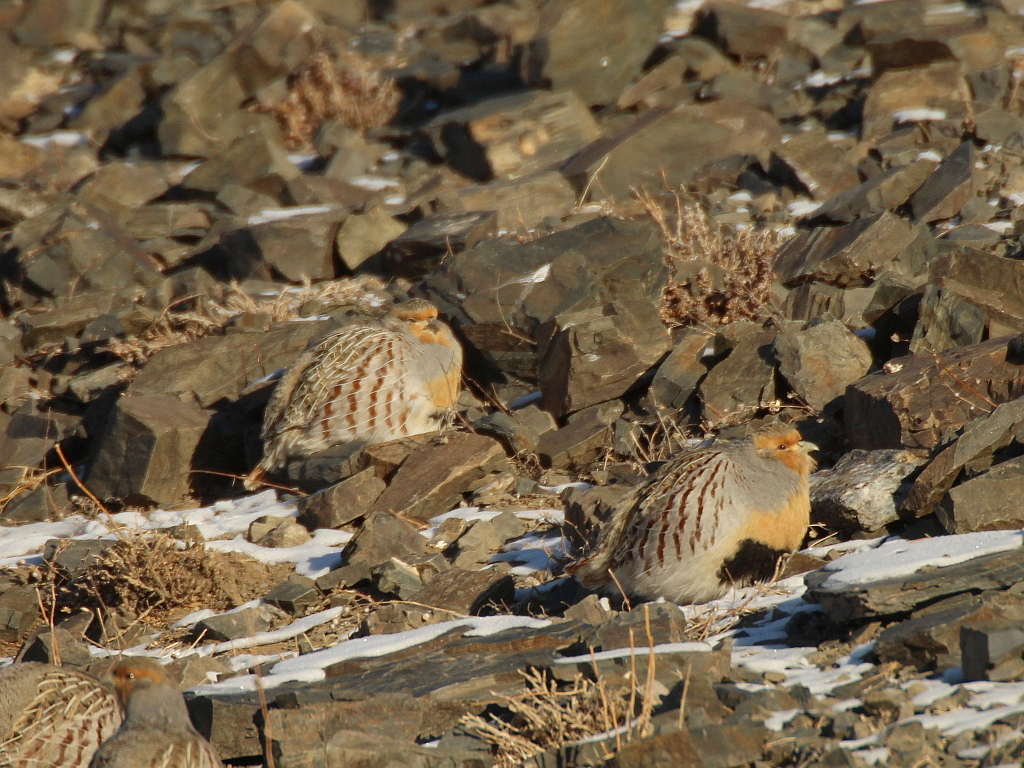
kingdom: Animalia
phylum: Chordata
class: Aves
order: Galliformes
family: Phasianidae
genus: Perdix
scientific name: Perdix dauurica
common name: Daurian partridge
